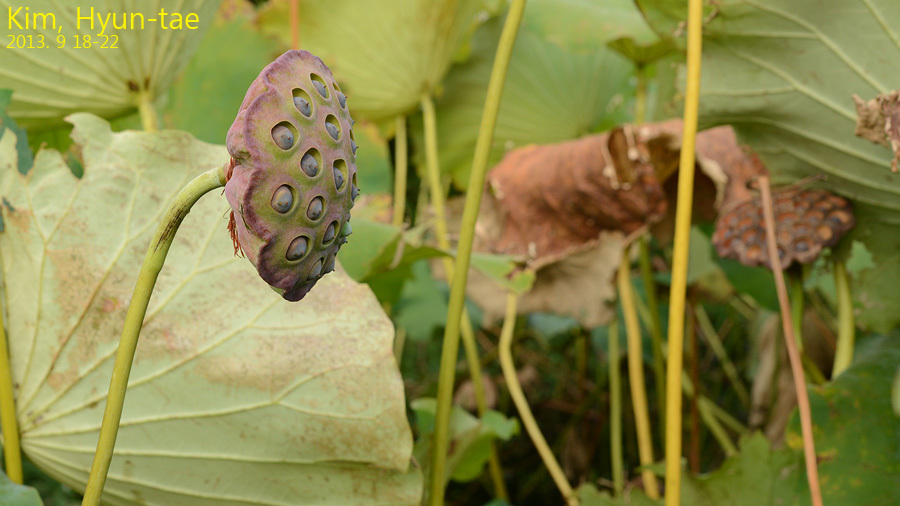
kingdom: Plantae
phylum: Tracheophyta
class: Magnoliopsida
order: Proteales
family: Nelumbonaceae
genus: Nelumbo
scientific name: Nelumbo nucifera
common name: Sacred lotus
